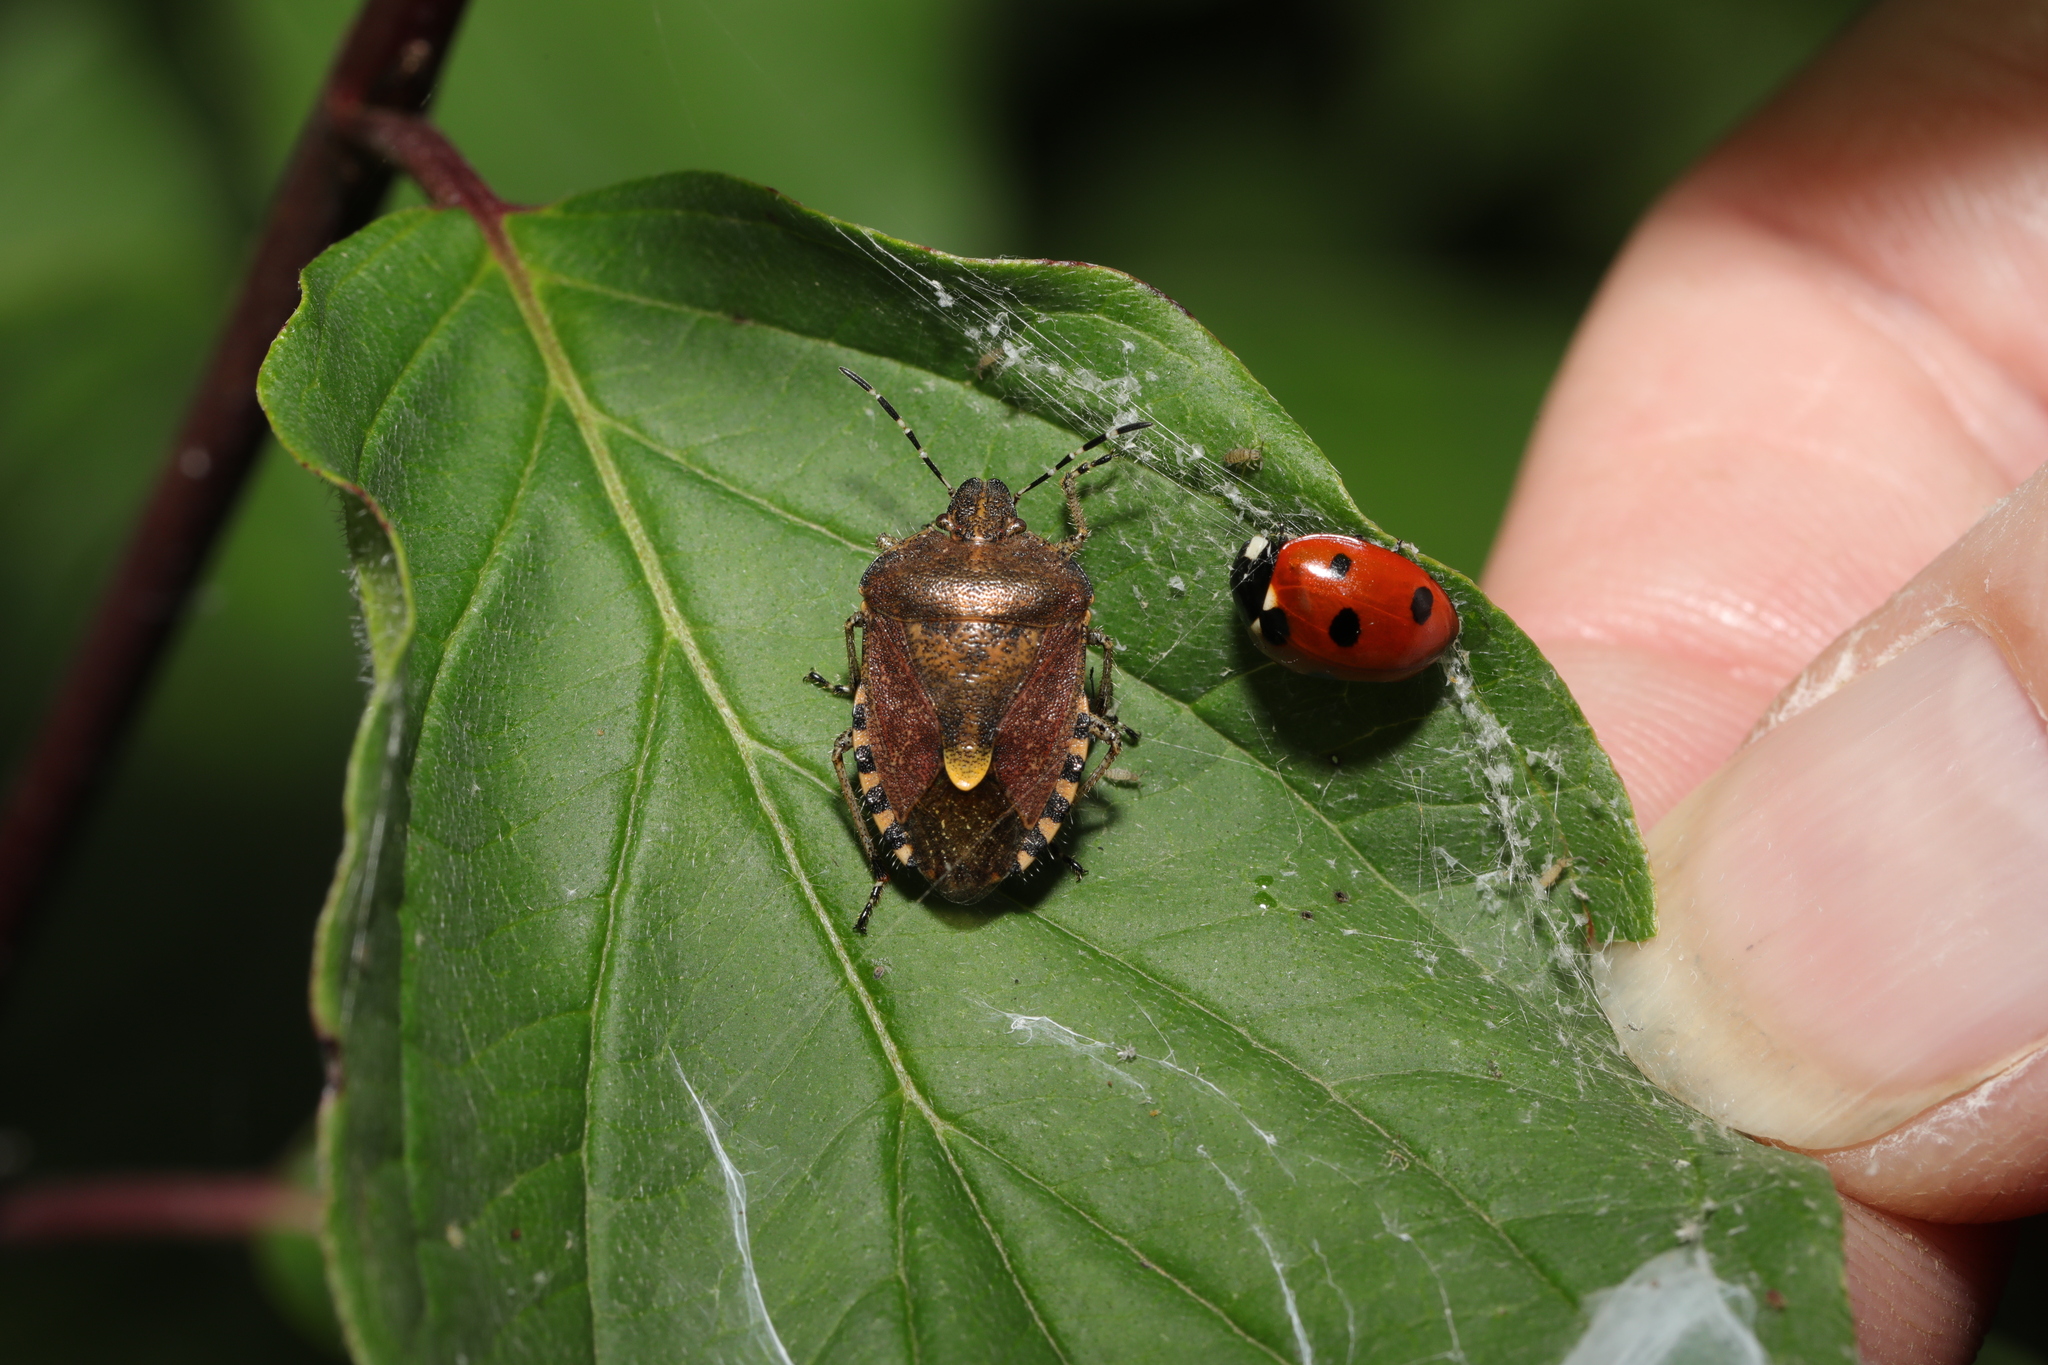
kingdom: Animalia
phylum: Arthropoda
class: Insecta
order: Coleoptera
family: Coccinellidae
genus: Coccinella
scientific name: Coccinella septempunctata
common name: Sevenspotted lady beetle
